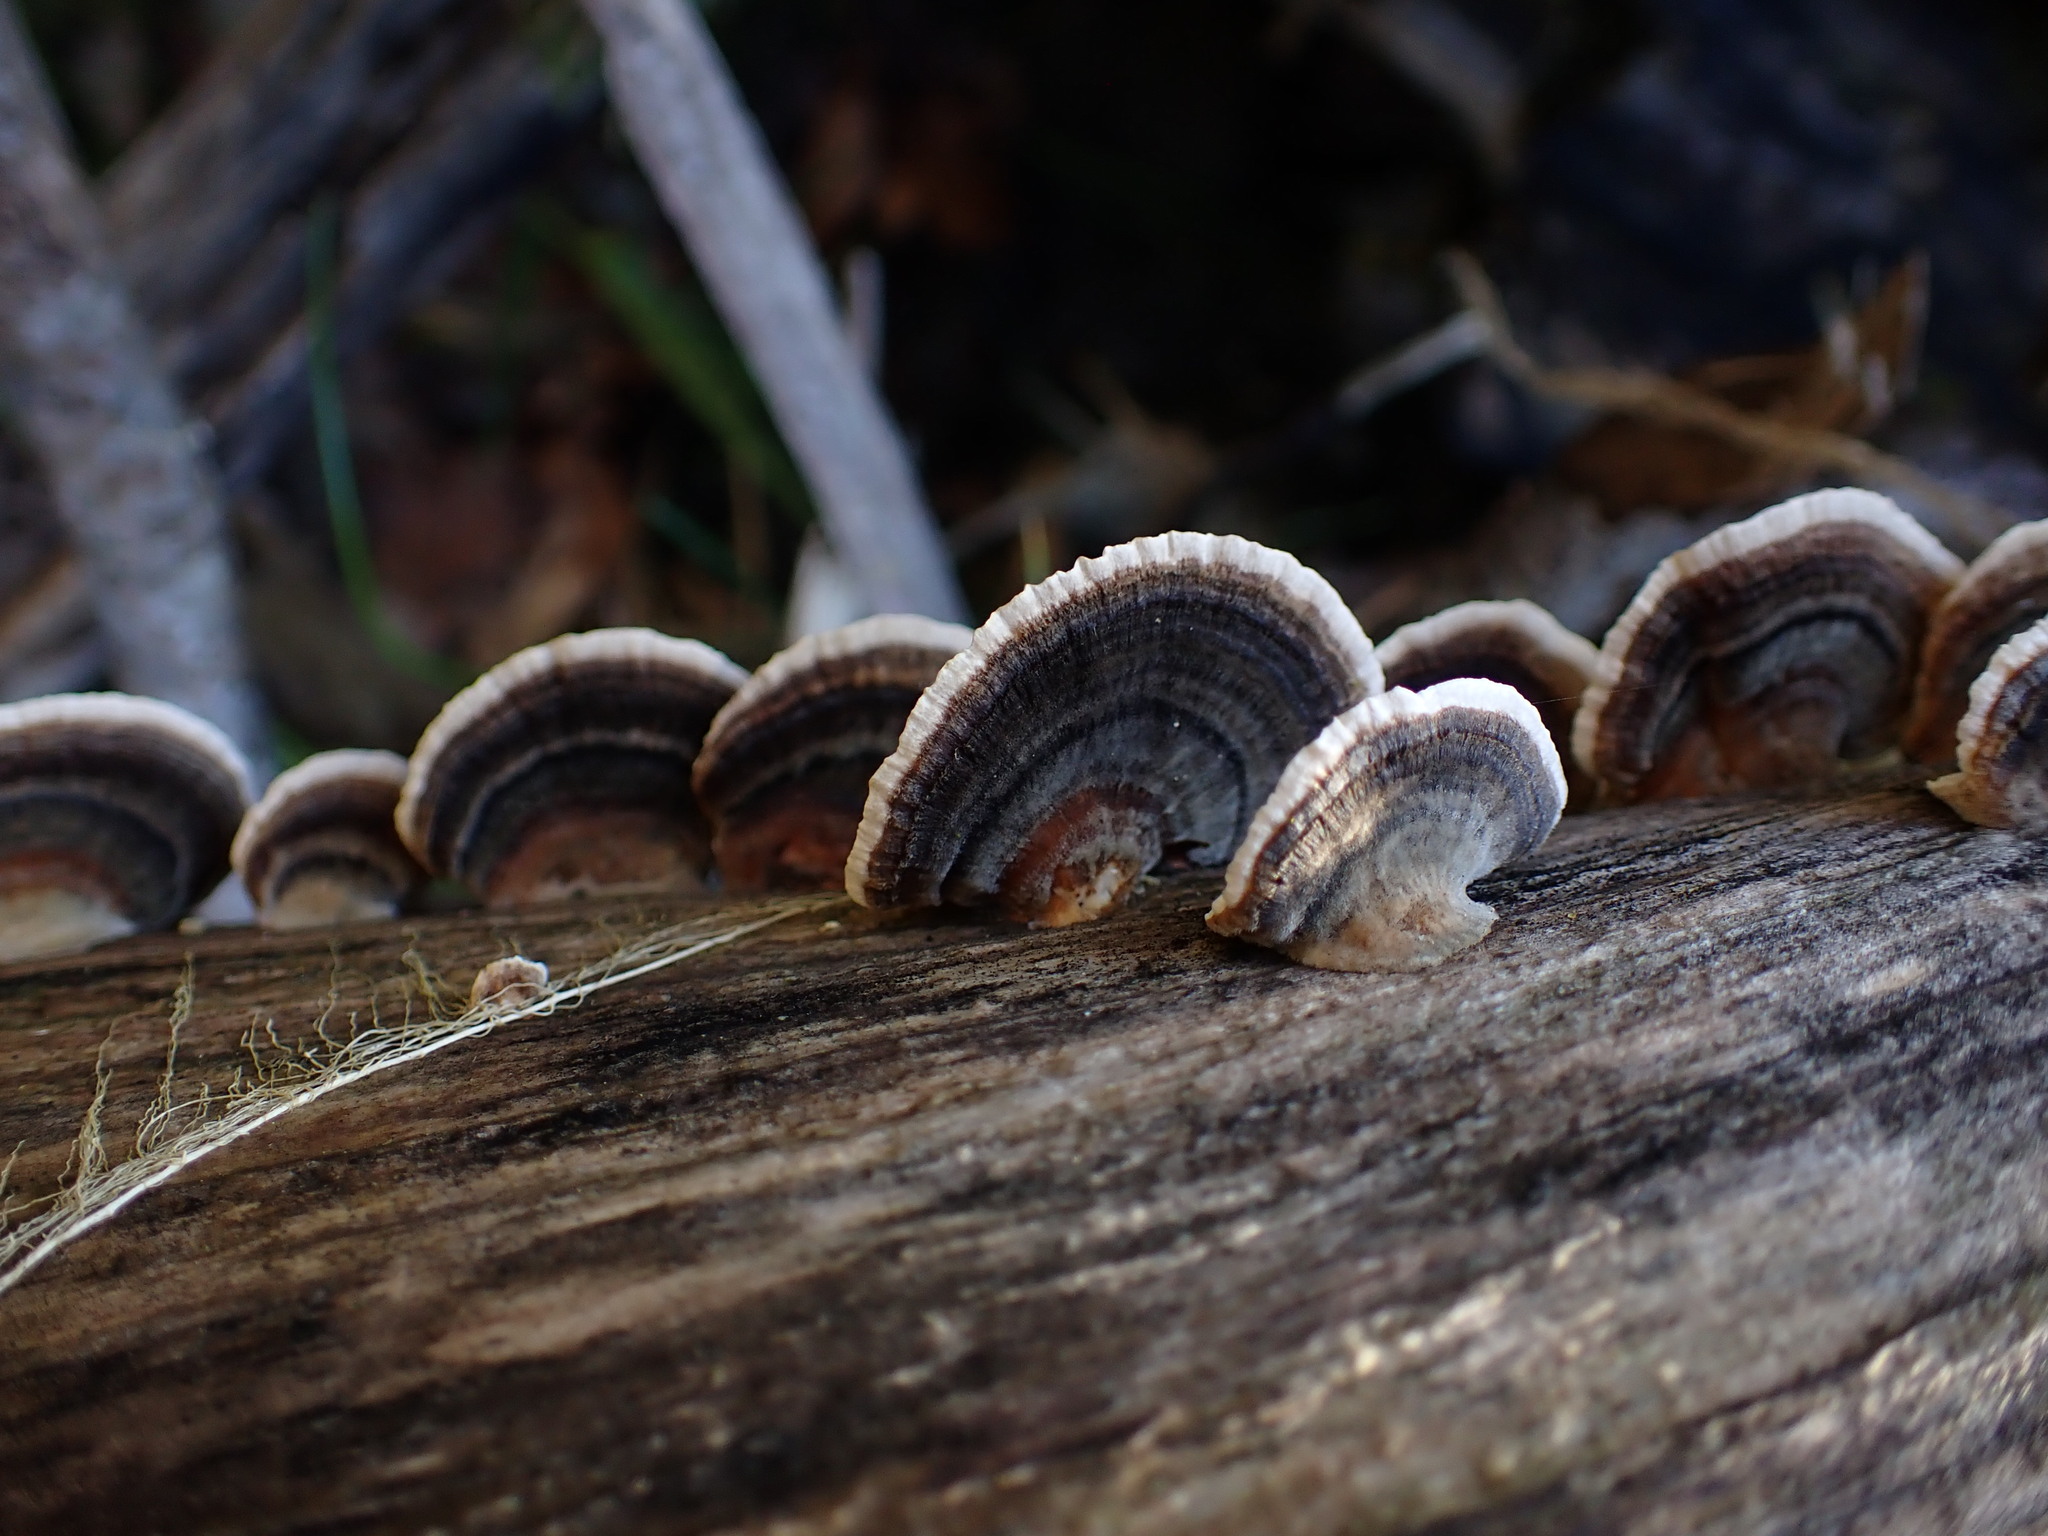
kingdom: Fungi
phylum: Basidiomycota
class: Agaricomycetes
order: Polyporales
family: Polyporaceae
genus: Trametes
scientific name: Trametes versicolor
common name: Turkeytail
